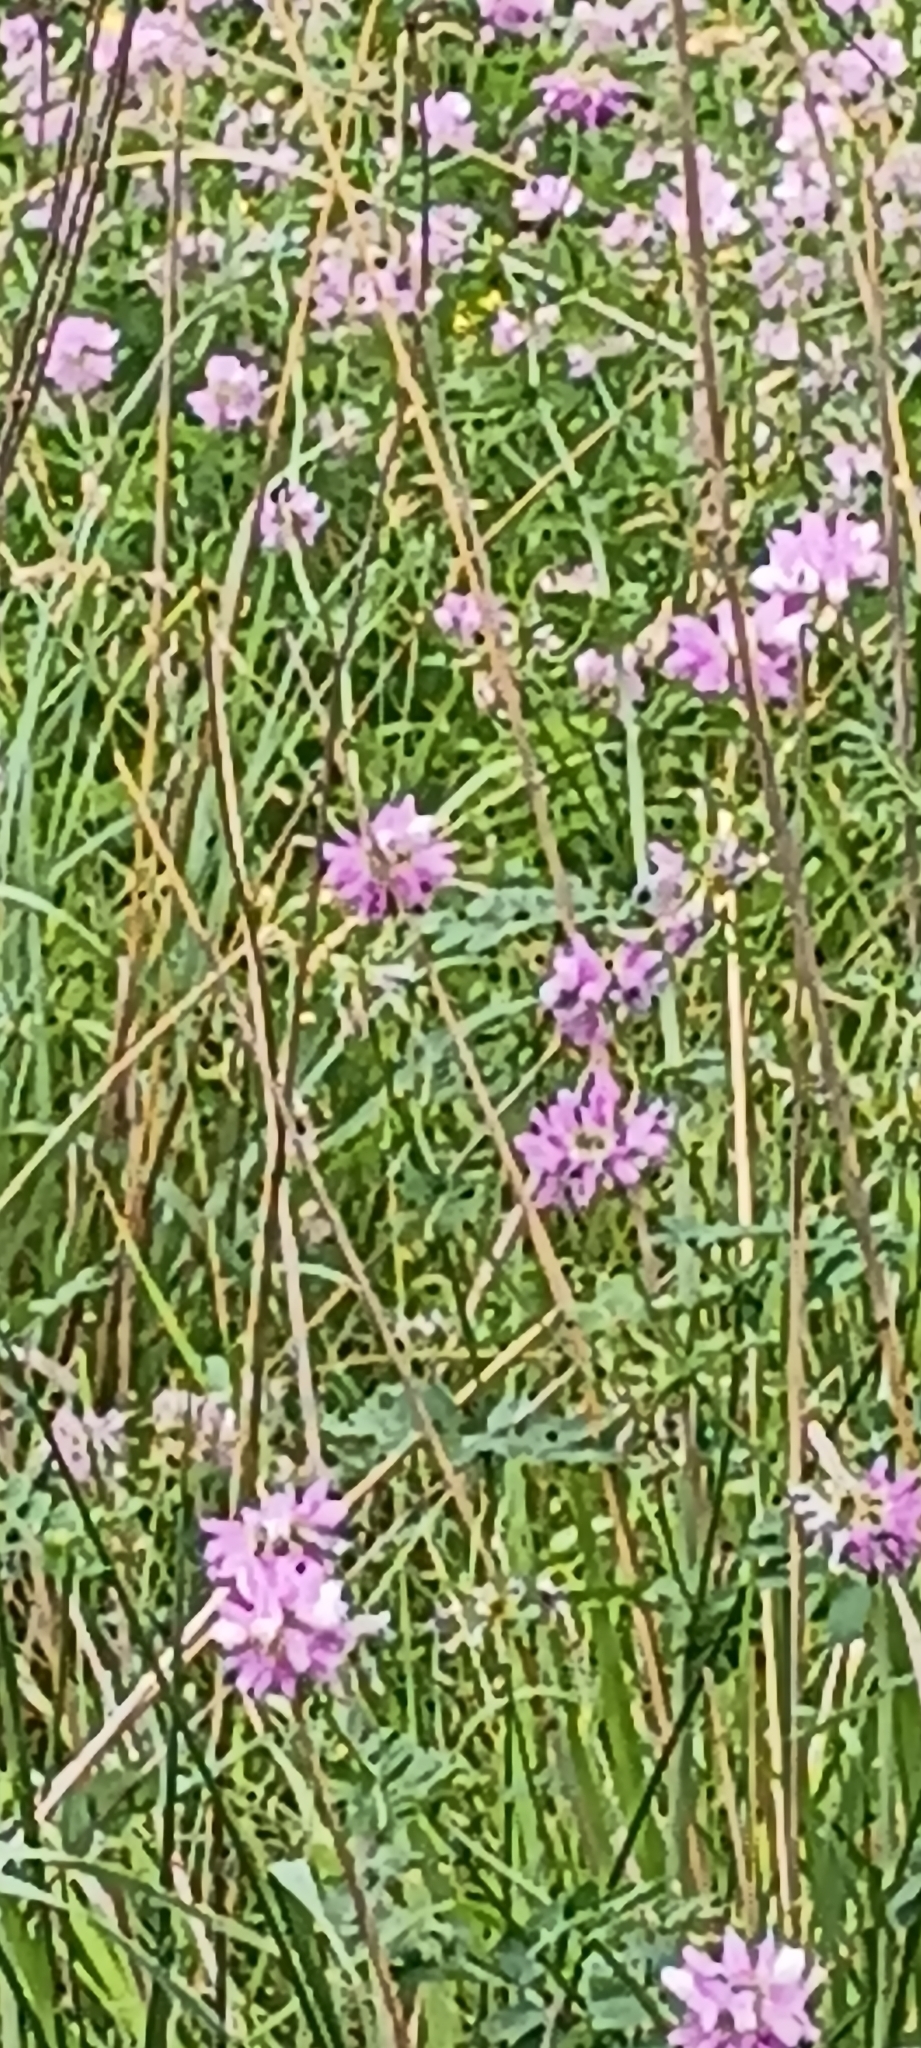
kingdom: Plantae
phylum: Tracheophyta
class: Magnoliopsida
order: Fabales
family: Fabaceae
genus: Coronilla
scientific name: Coronilla varia
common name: Crownvetch
